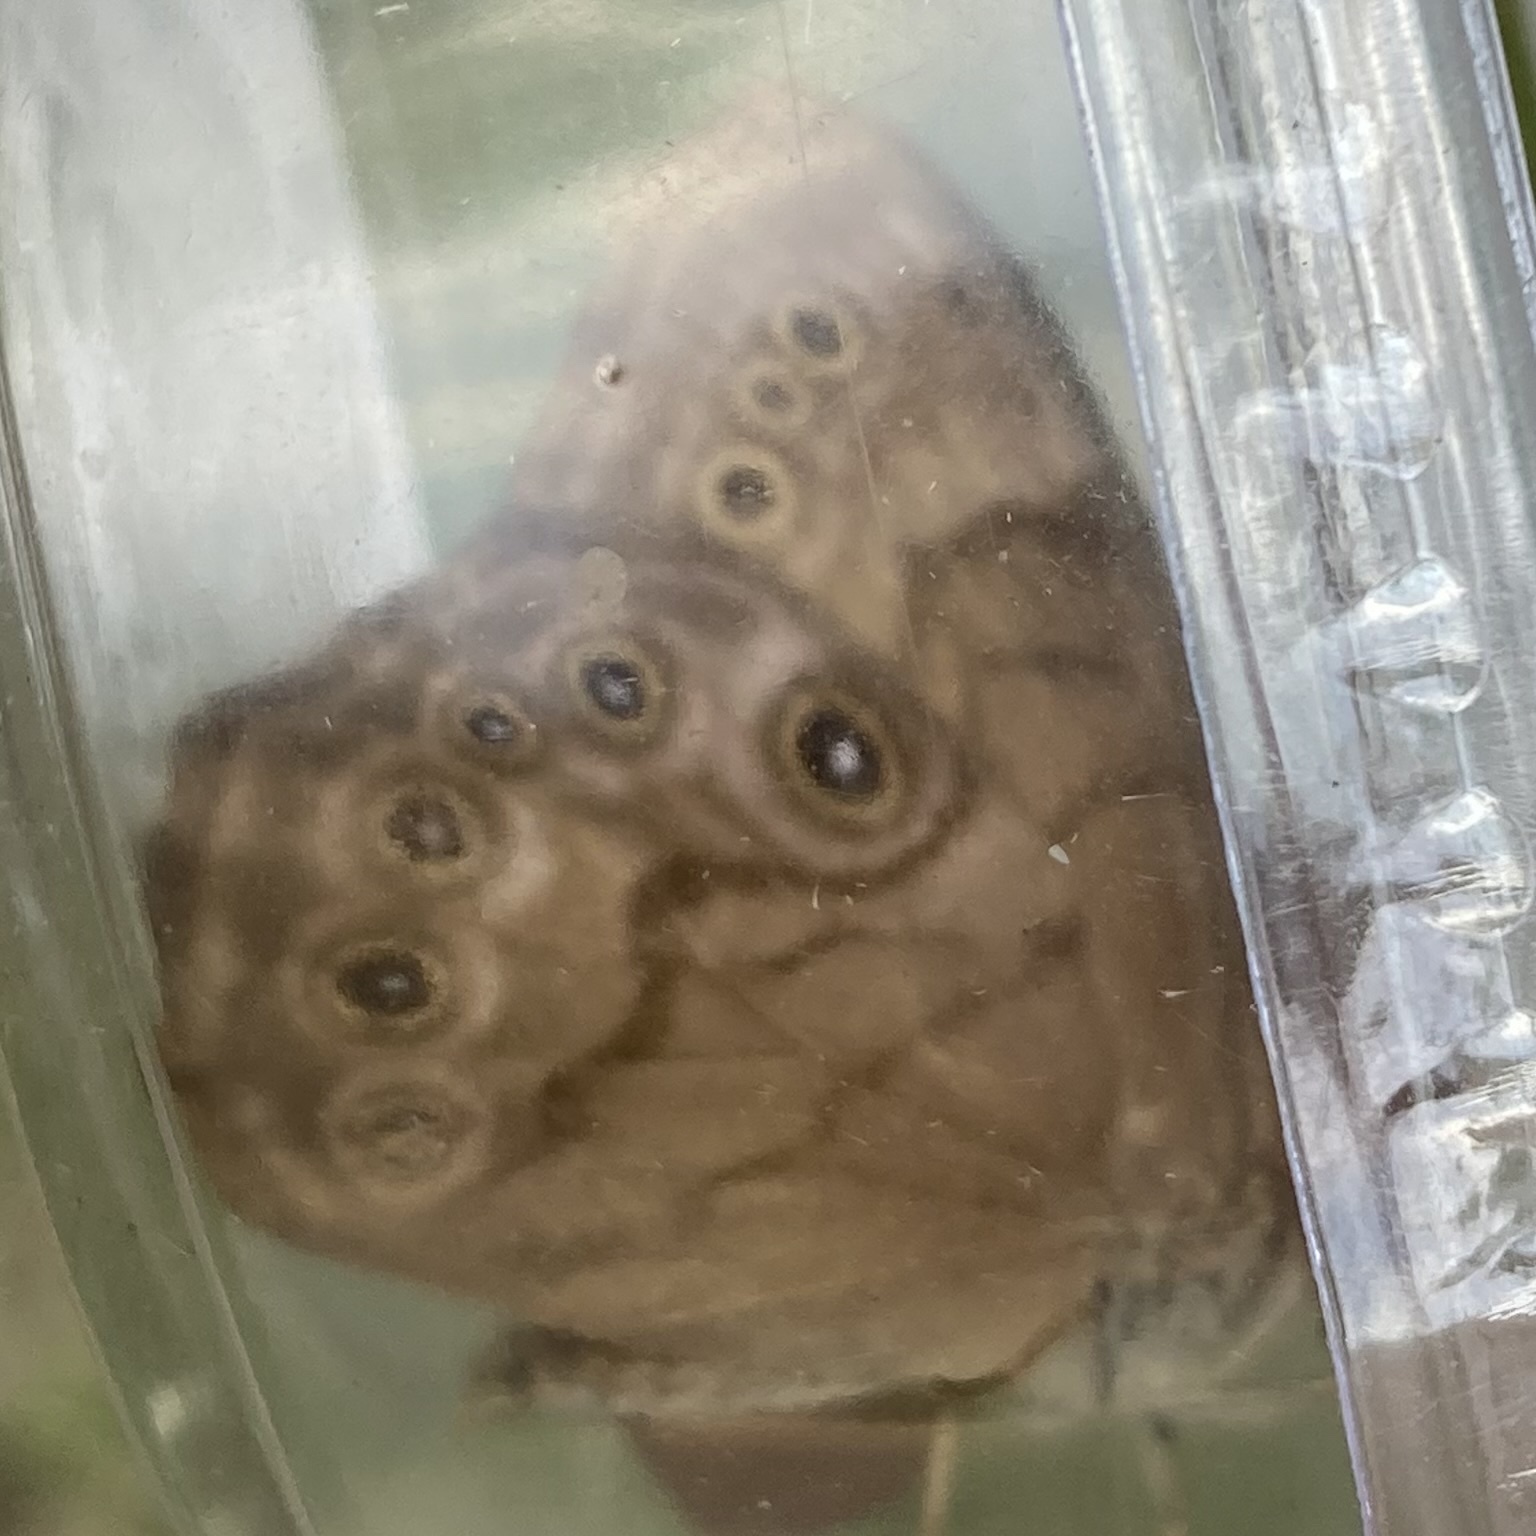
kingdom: Animalia
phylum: Arthropoda
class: Insecta
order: Lepidoptera
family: Nymphalidae
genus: Lethe
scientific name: Lethe anthedon
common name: Northern pearly-eye
